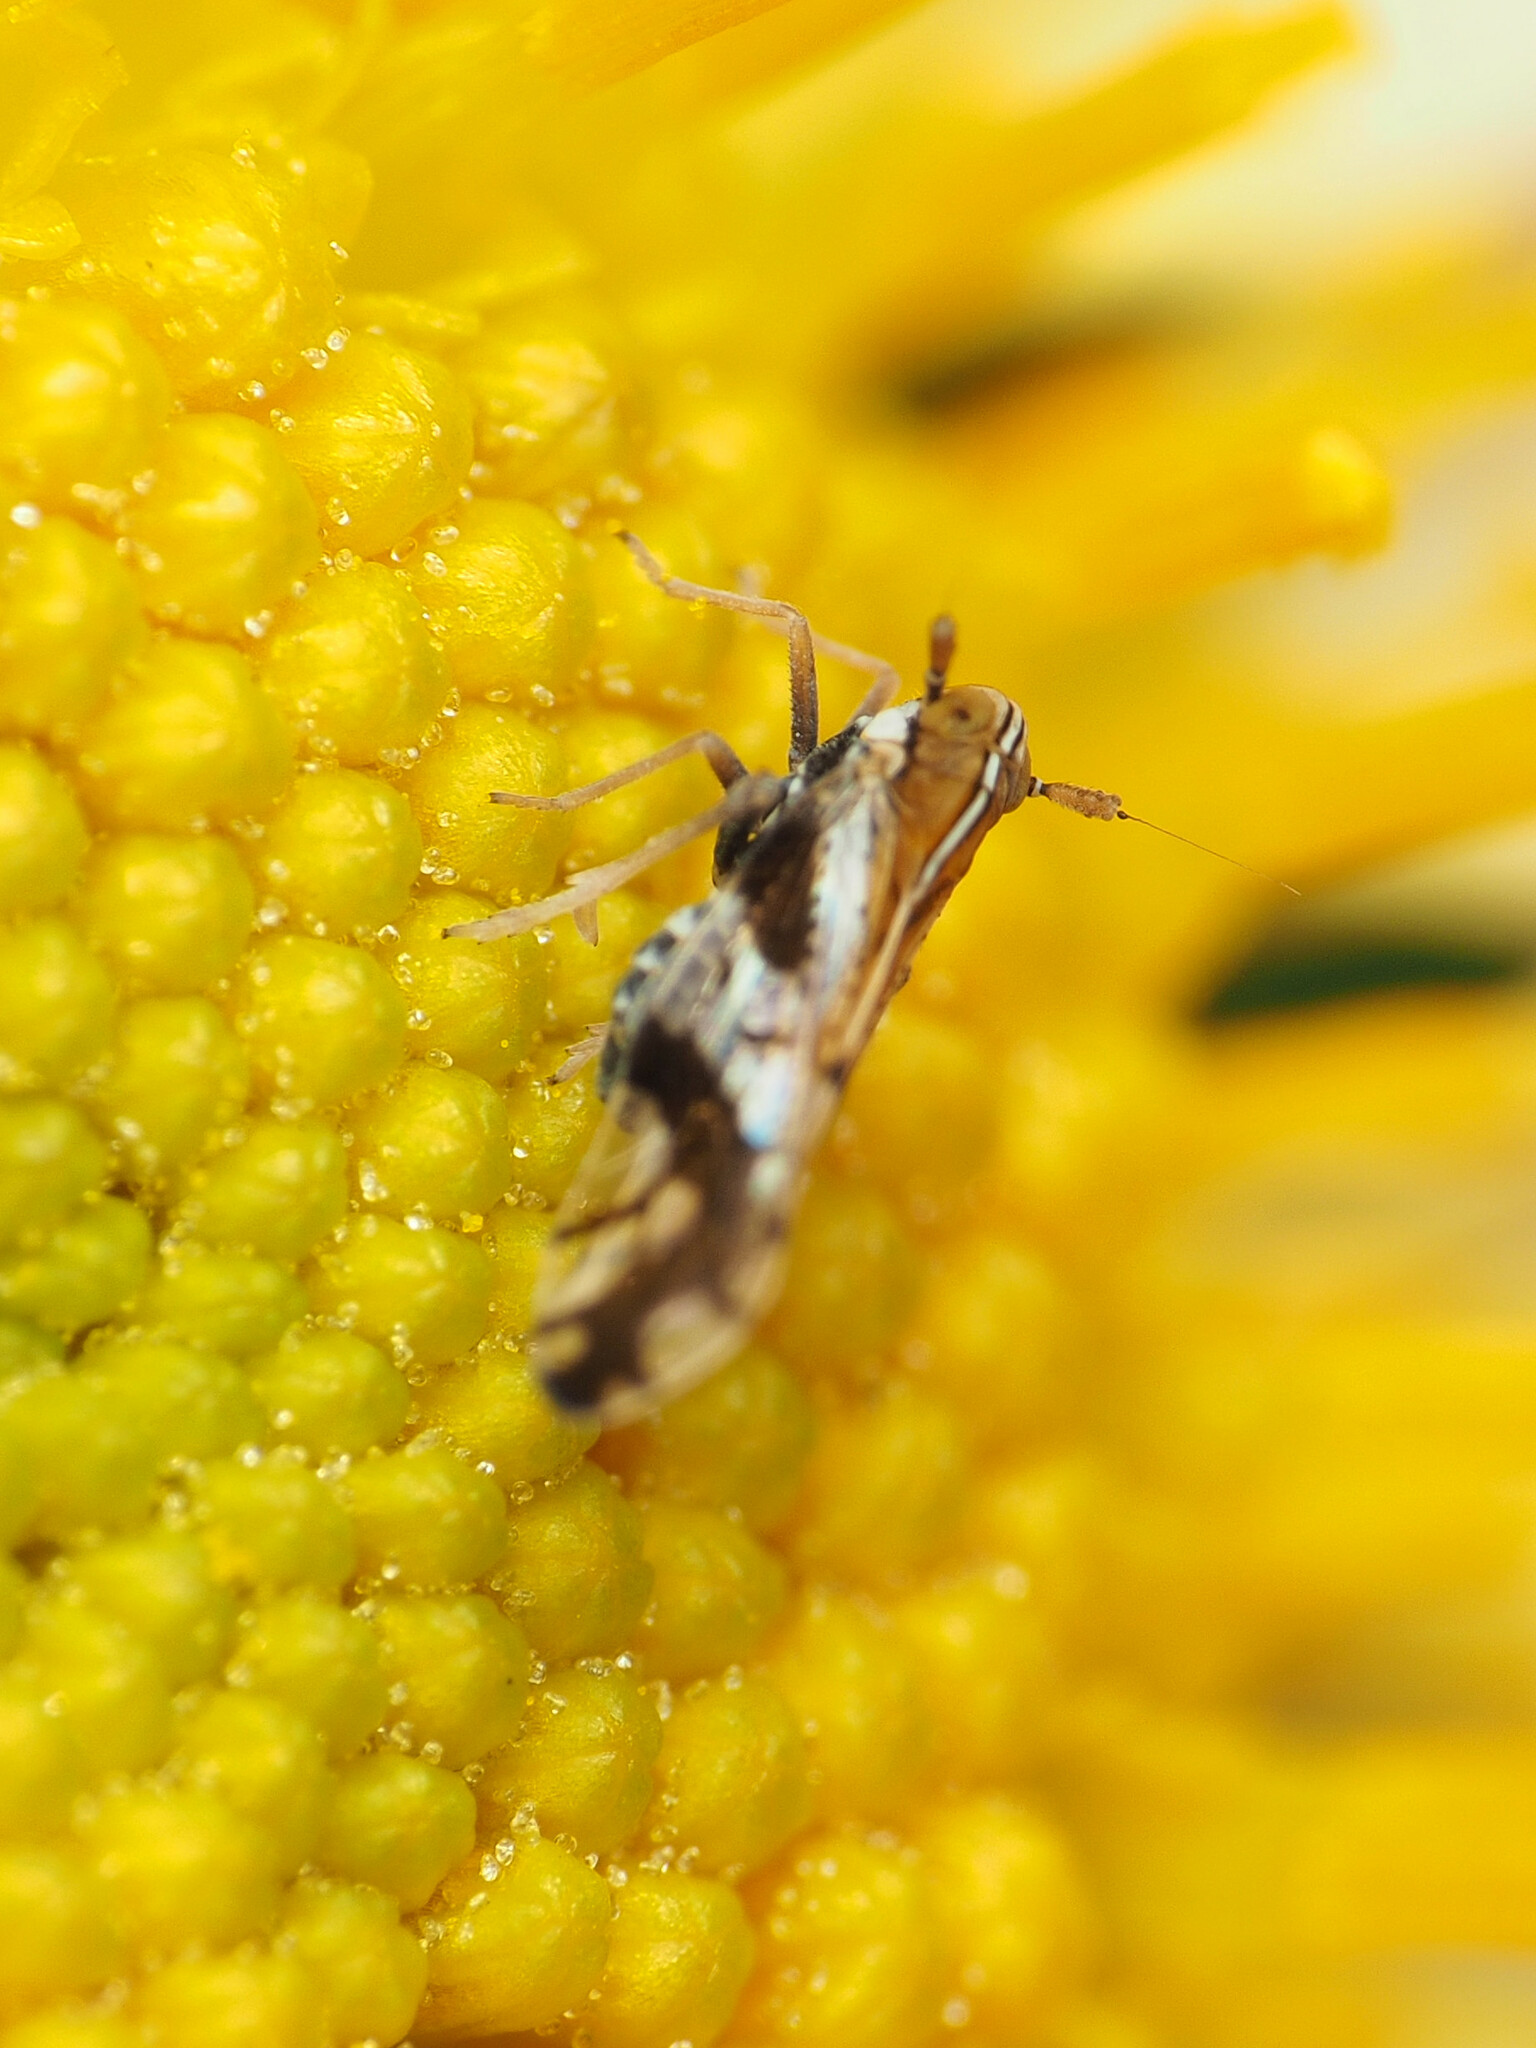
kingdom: Animalia
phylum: Arthropoda
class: Insecta
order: Hemiptera
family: Delphacidae
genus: Liburniella
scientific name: Liburniella ornata
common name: Ornate planthopper
